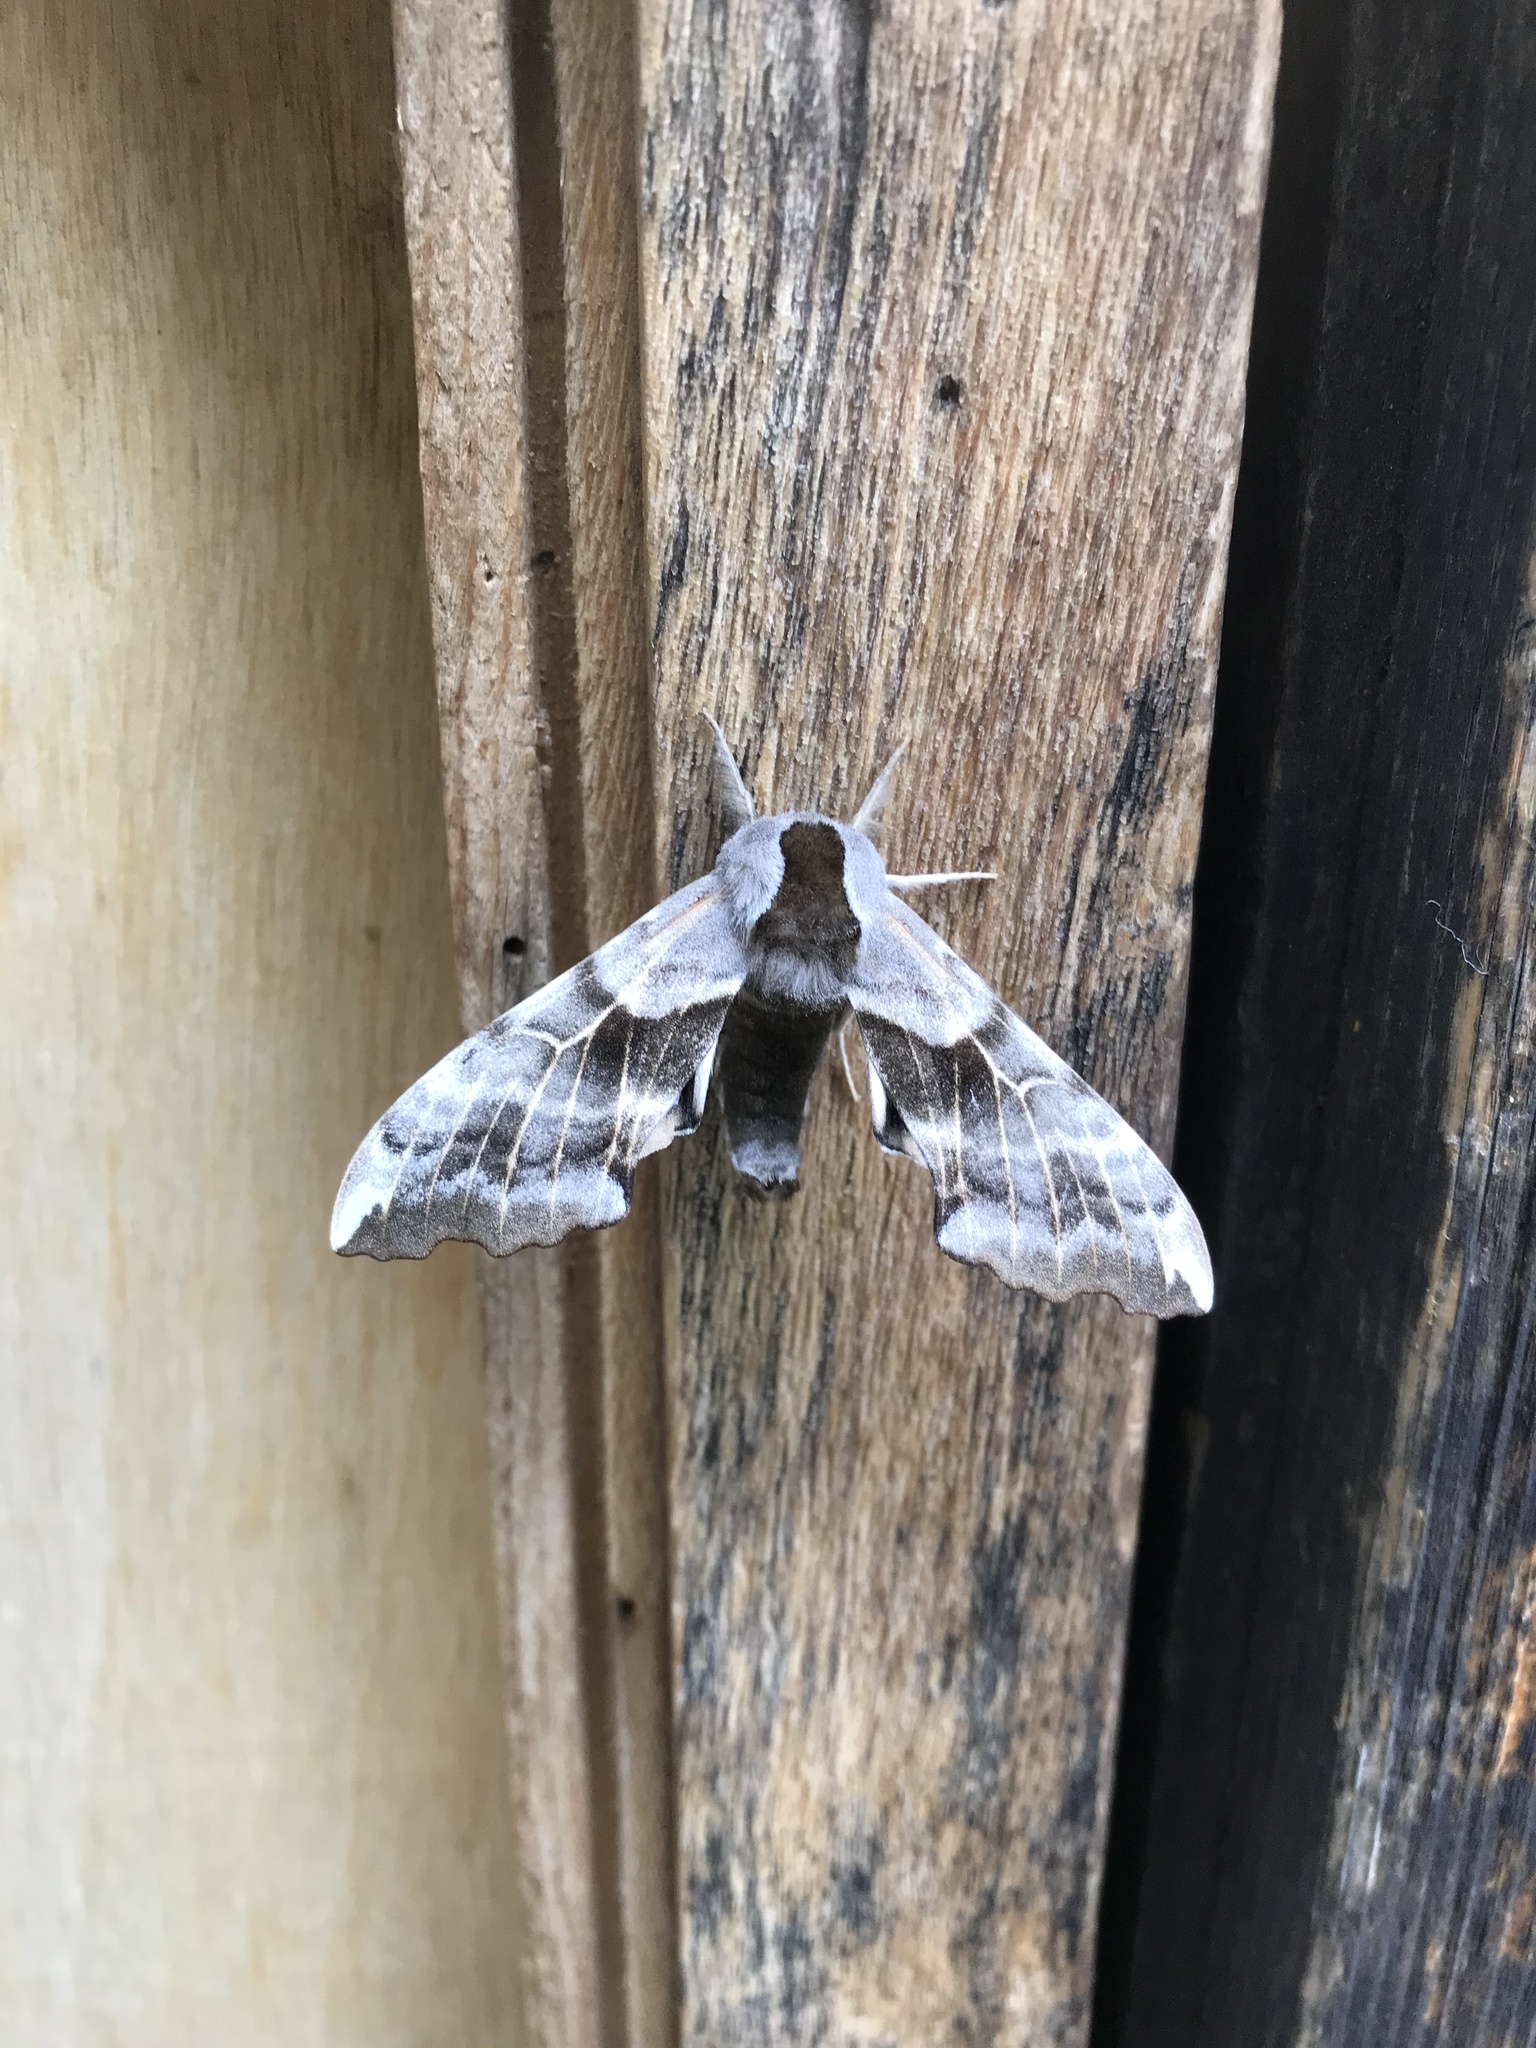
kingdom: Animalia
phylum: Arthropoda
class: Insecta
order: Lepidoptera
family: Sphingidae
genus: Smerinthus
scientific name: Smerinthus cerisyi
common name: Cerisy's sphinx moth
